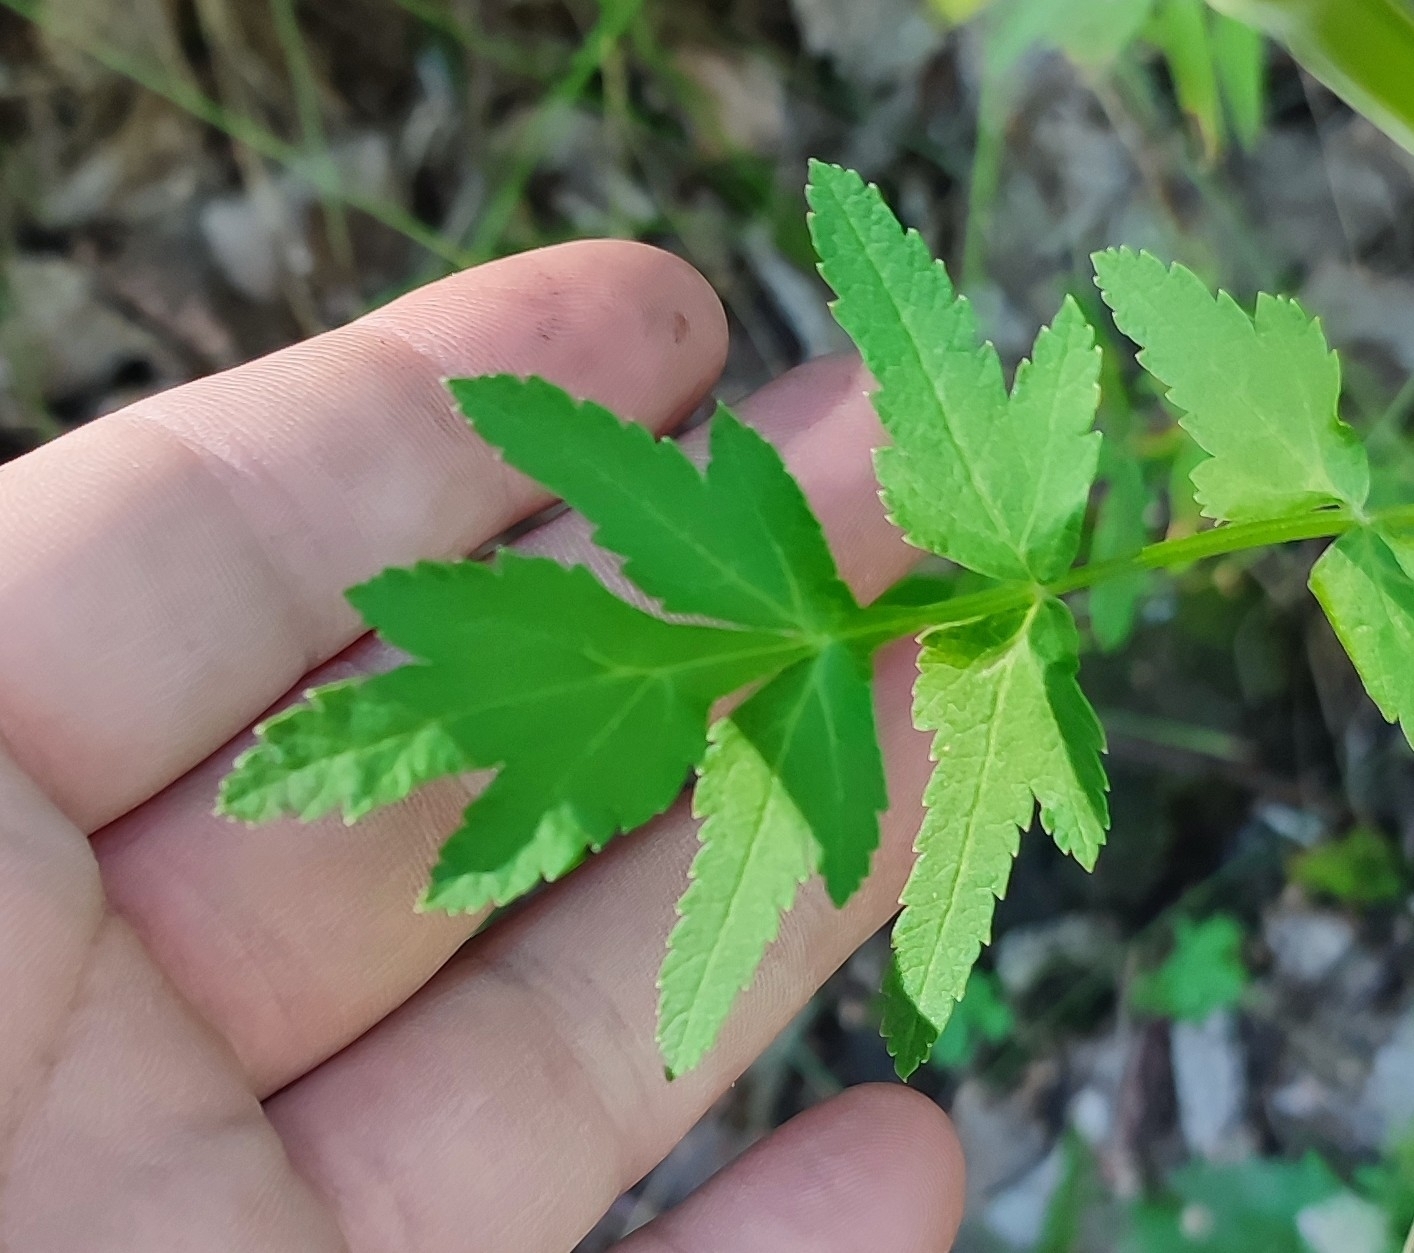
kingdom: Plantae
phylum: Tracheophyta
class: Magnoliopsida
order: Apiales
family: Apiaceae
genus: Pastinaca
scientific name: Pastinaca sativa
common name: Wild parsnip
